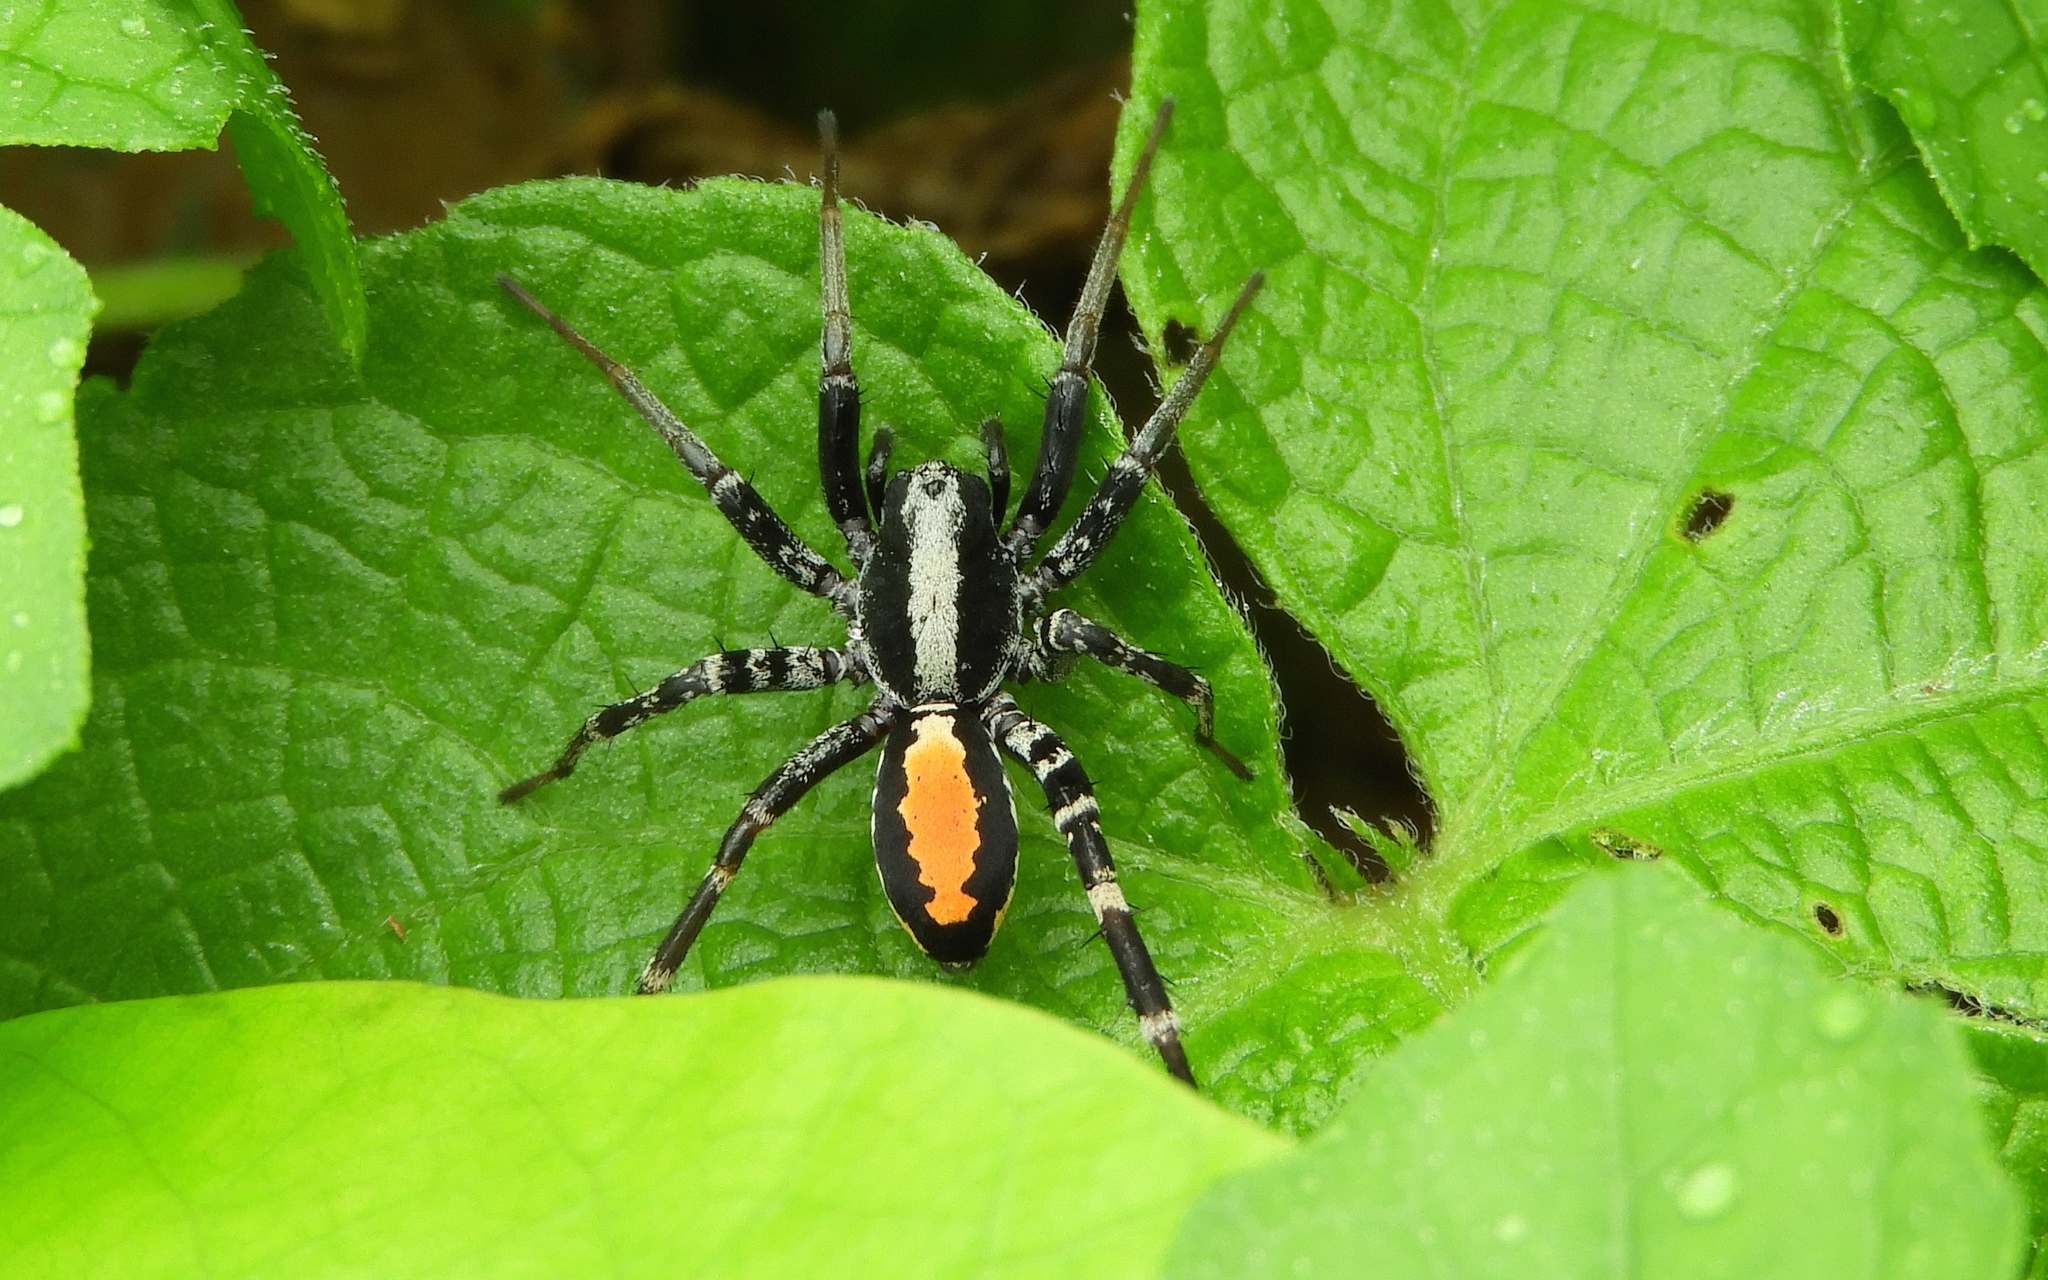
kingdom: Animalia
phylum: Arthropoda
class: Arachnida
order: Araneae
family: Corinnidae
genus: Castianeira
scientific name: Castianeira
